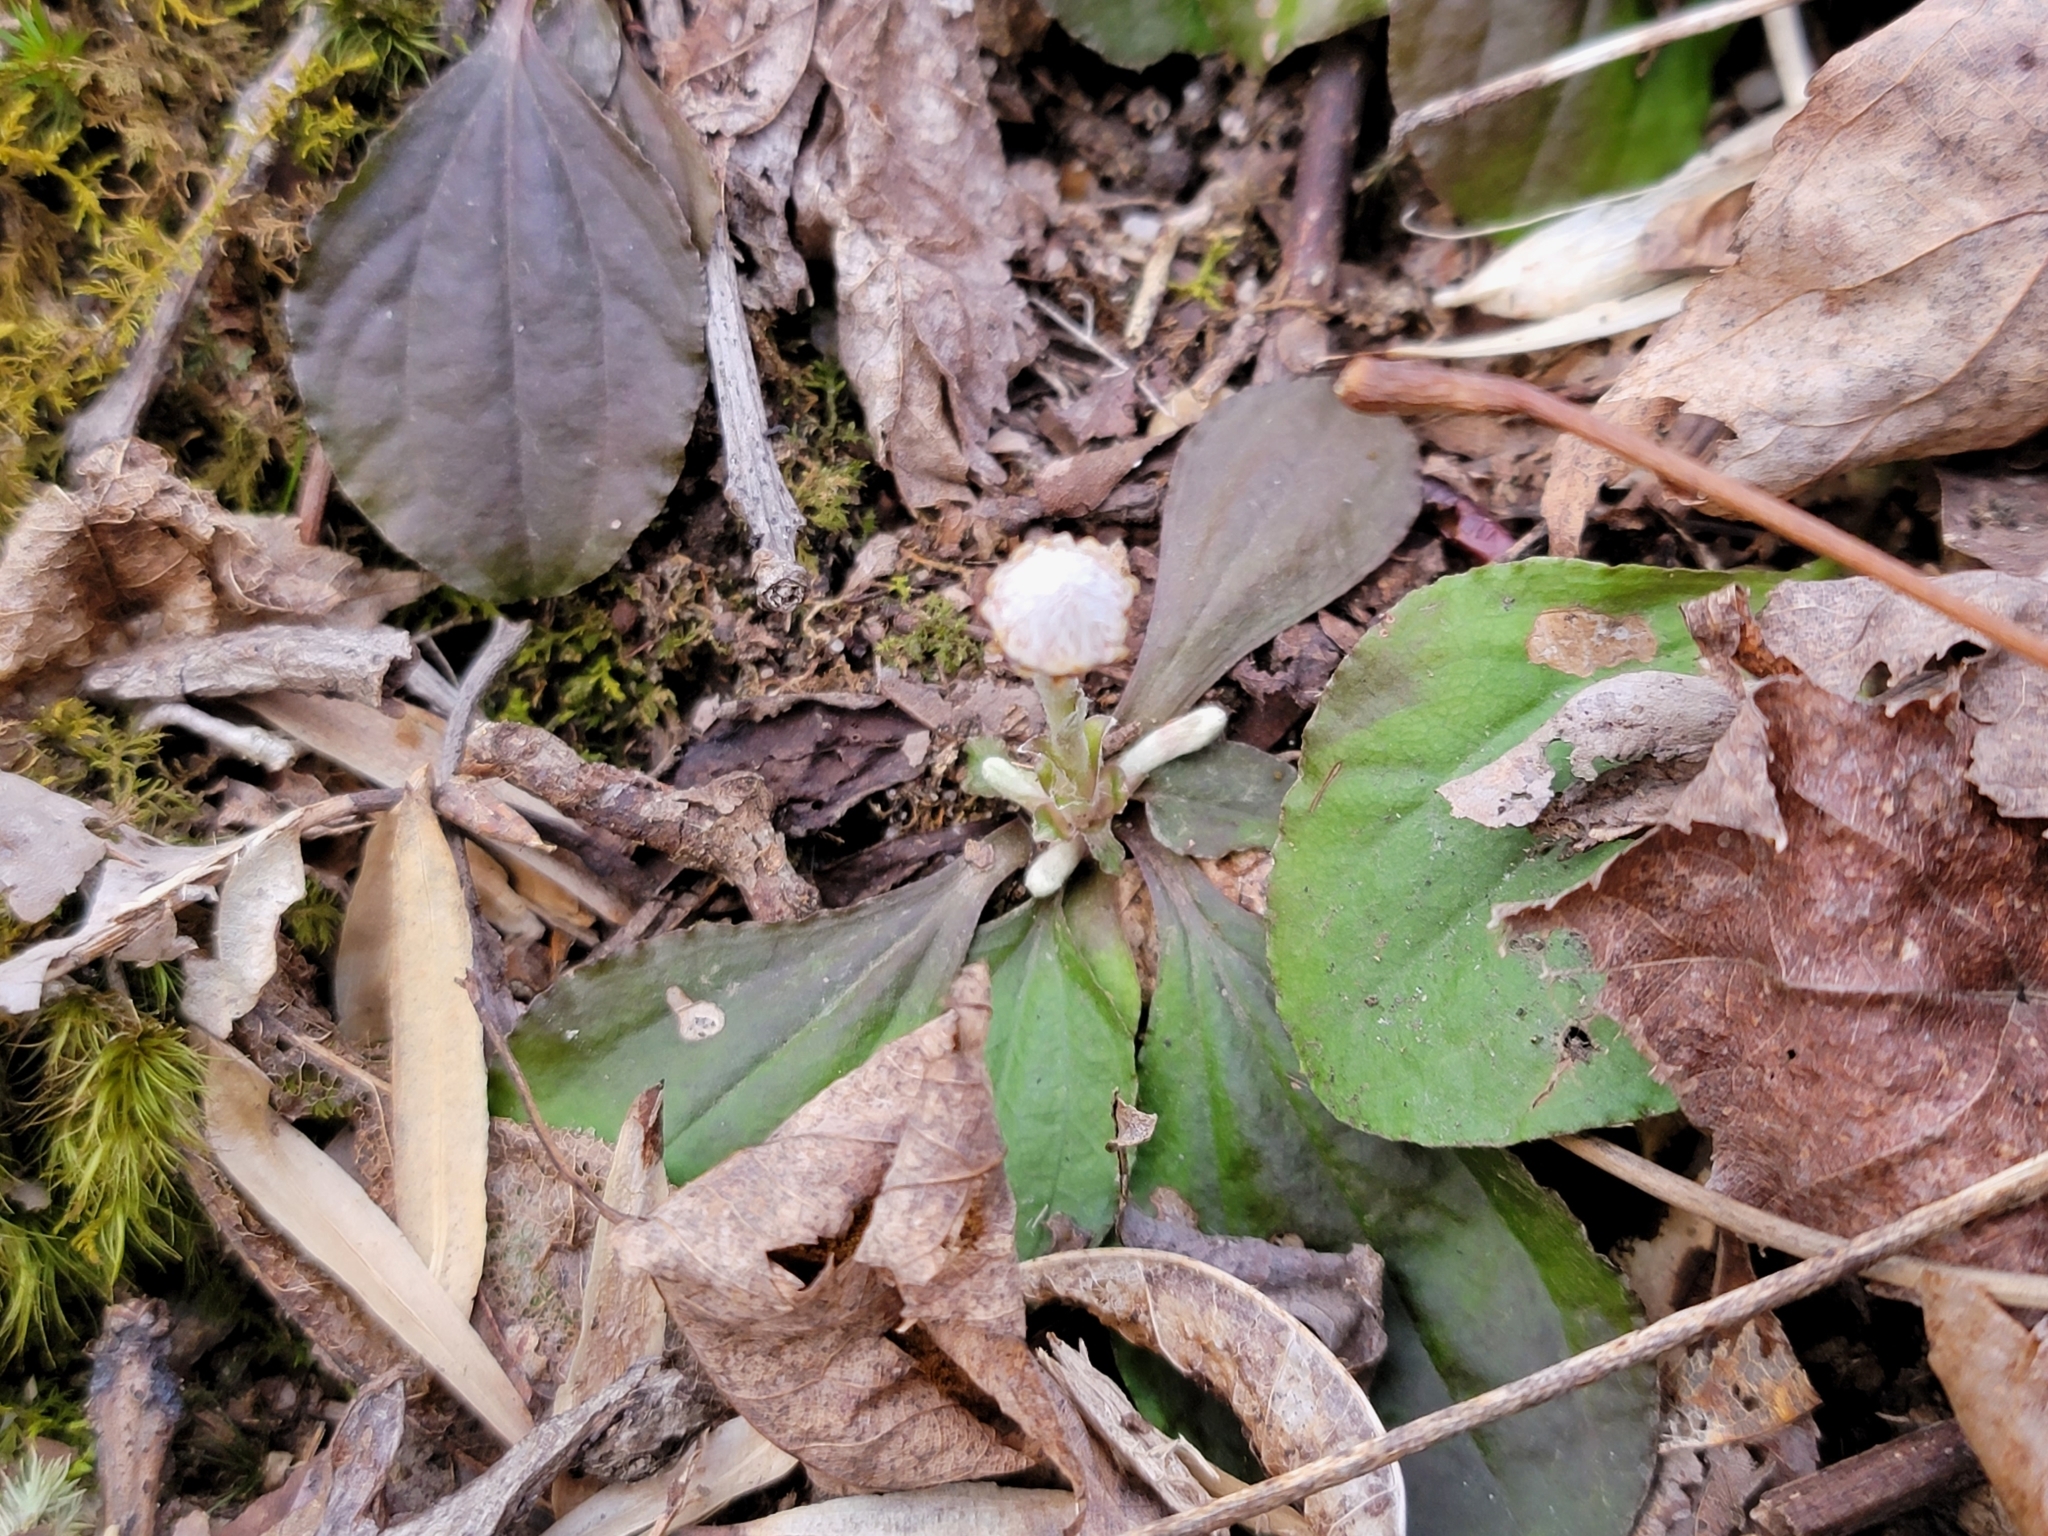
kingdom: Plantae
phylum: Tracheophyta
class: Magnoliopsida
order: Asterales
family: Asteraceae
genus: Antennaria
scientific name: Antennaria solitaria
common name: Single-head pussytoes
